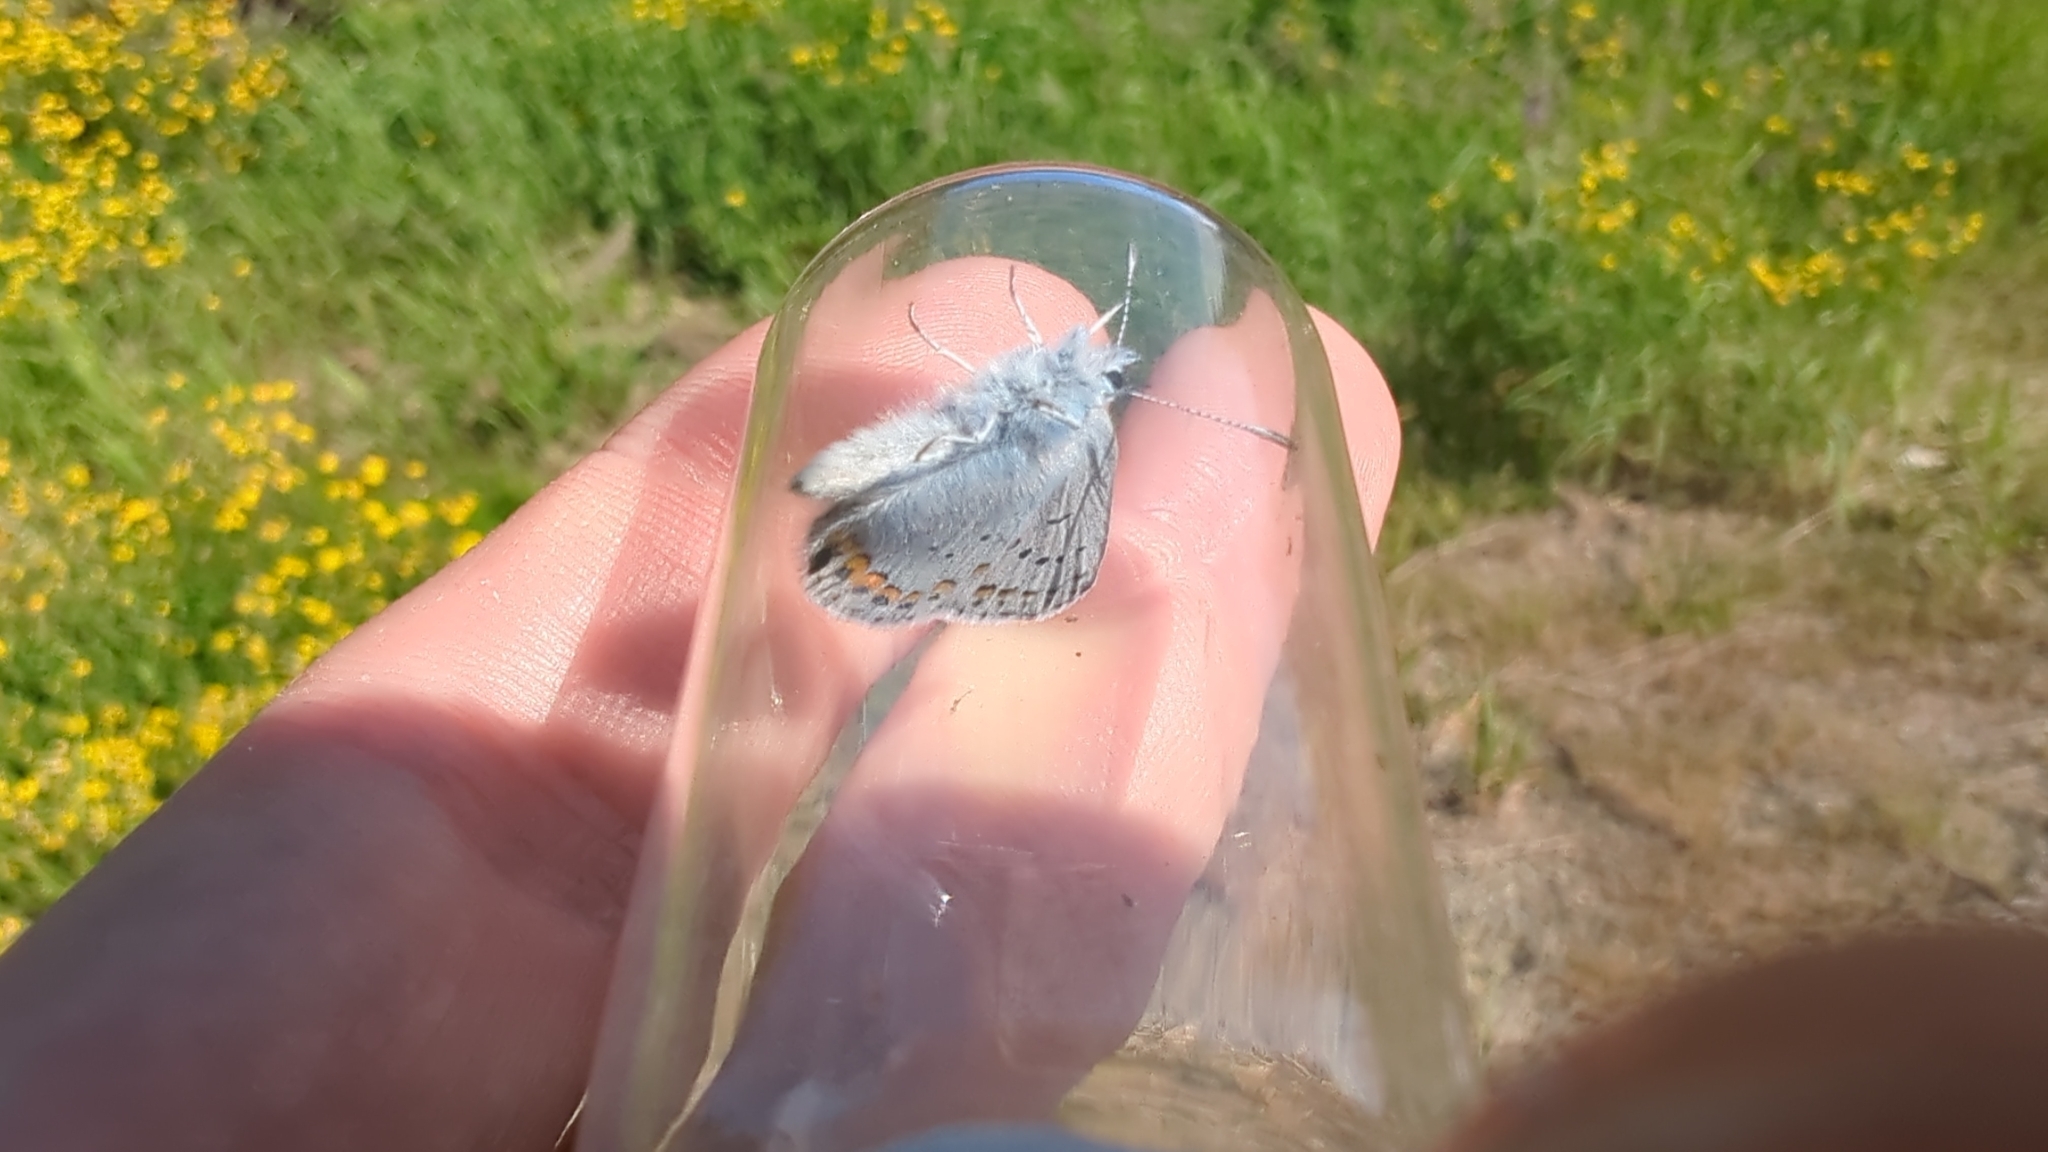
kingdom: Animalia
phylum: Arthropoda
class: Insecta
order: Lepidoptera
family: Lycaenidae
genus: Lycaeides
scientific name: Lycaeides anna
